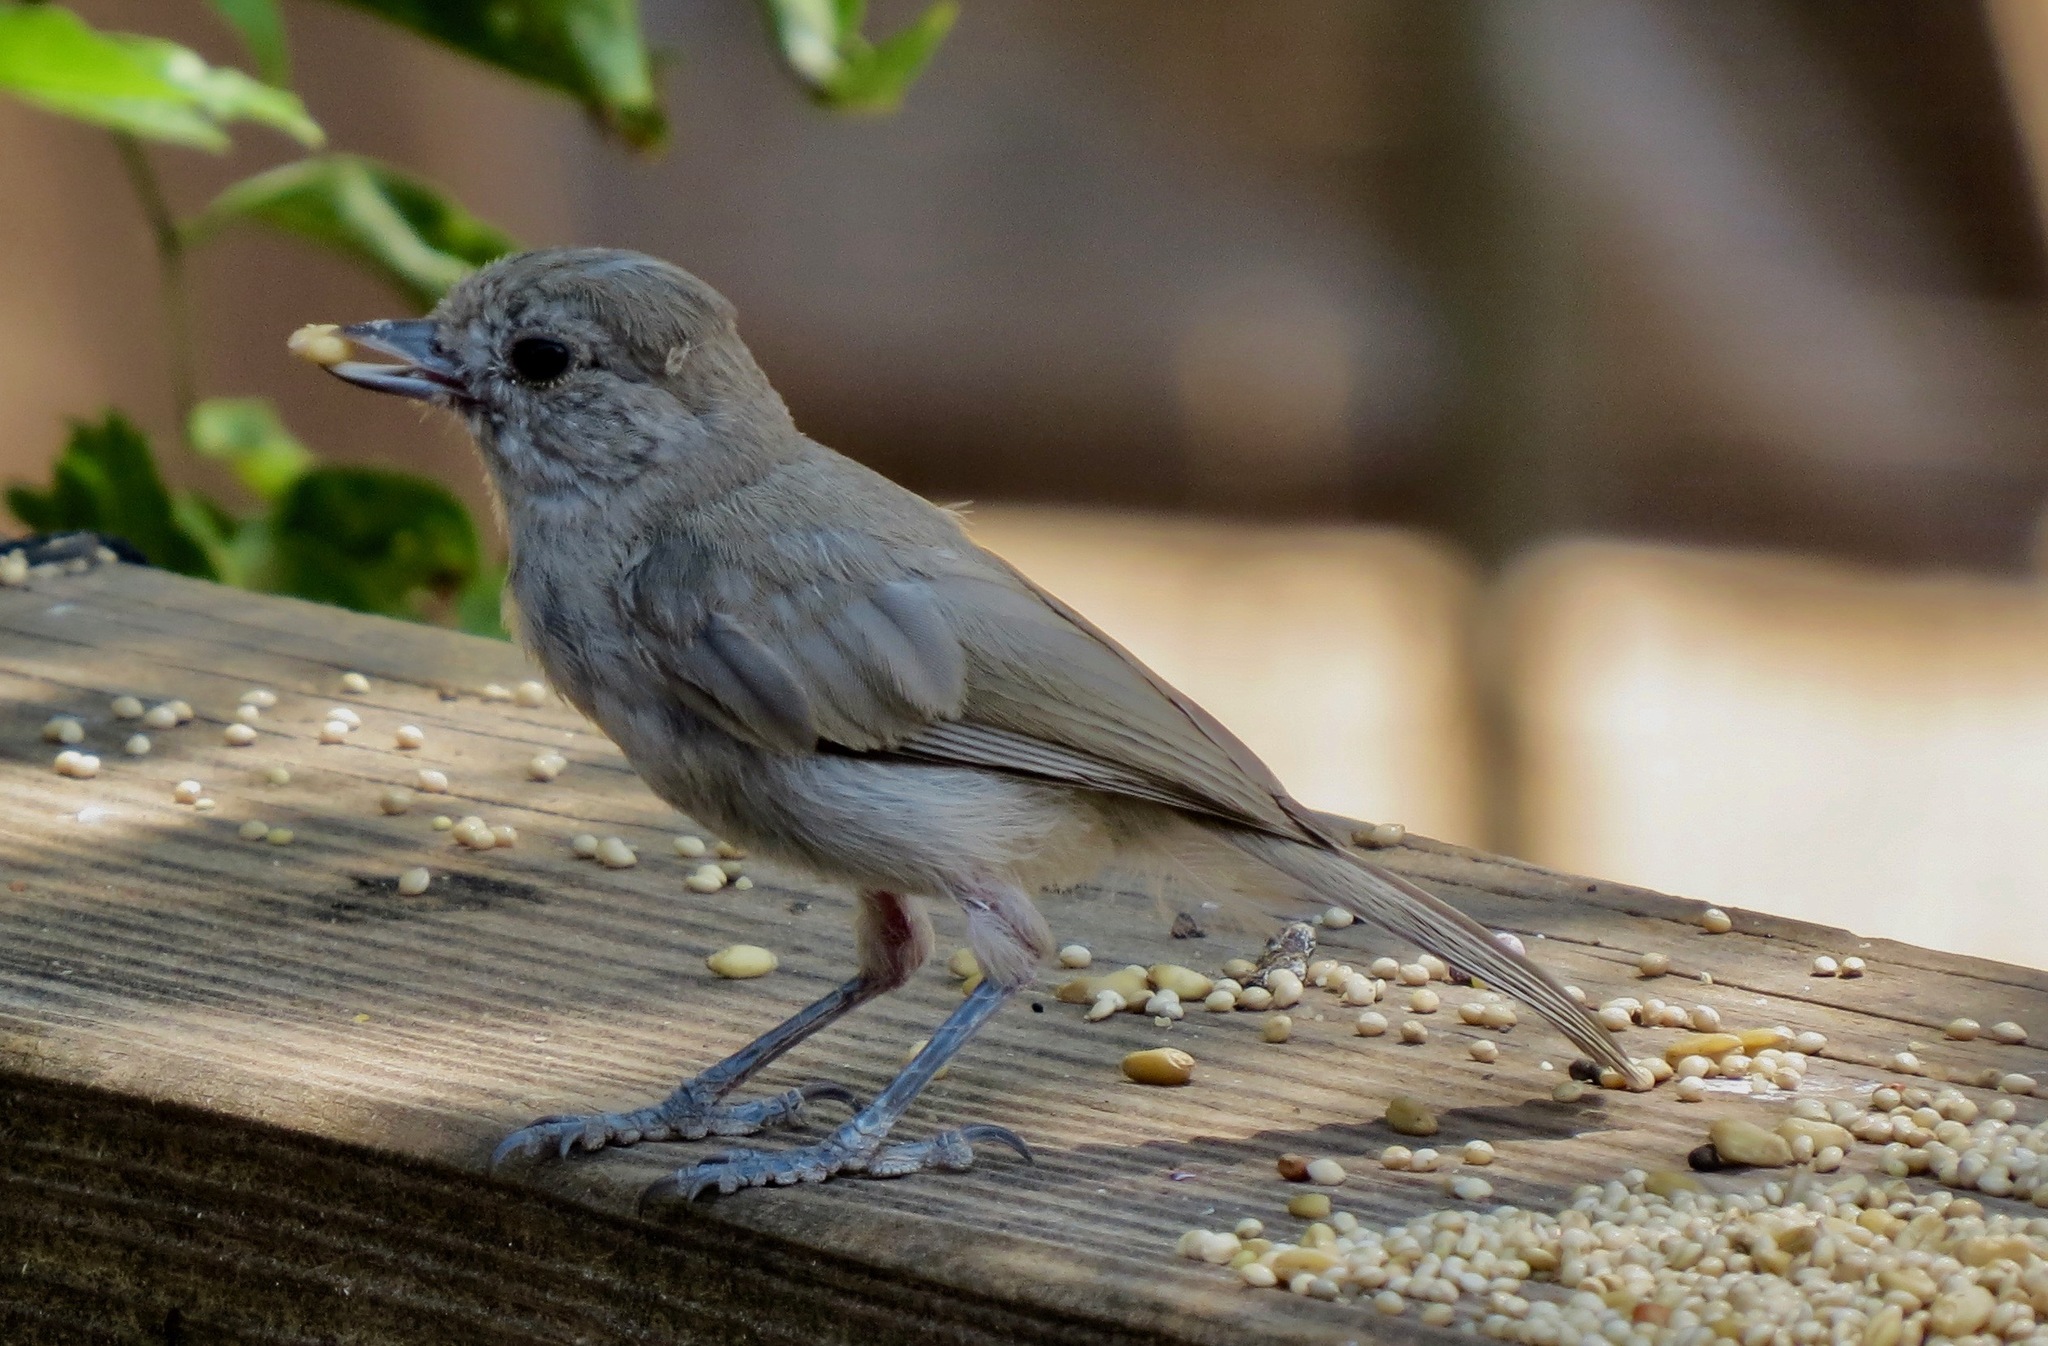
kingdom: Animalia
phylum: Chordata
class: Aves
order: Passeriformes
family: Paridae
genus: Baeolophus
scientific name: Baeolophus inornatus
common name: Oak titmouse
